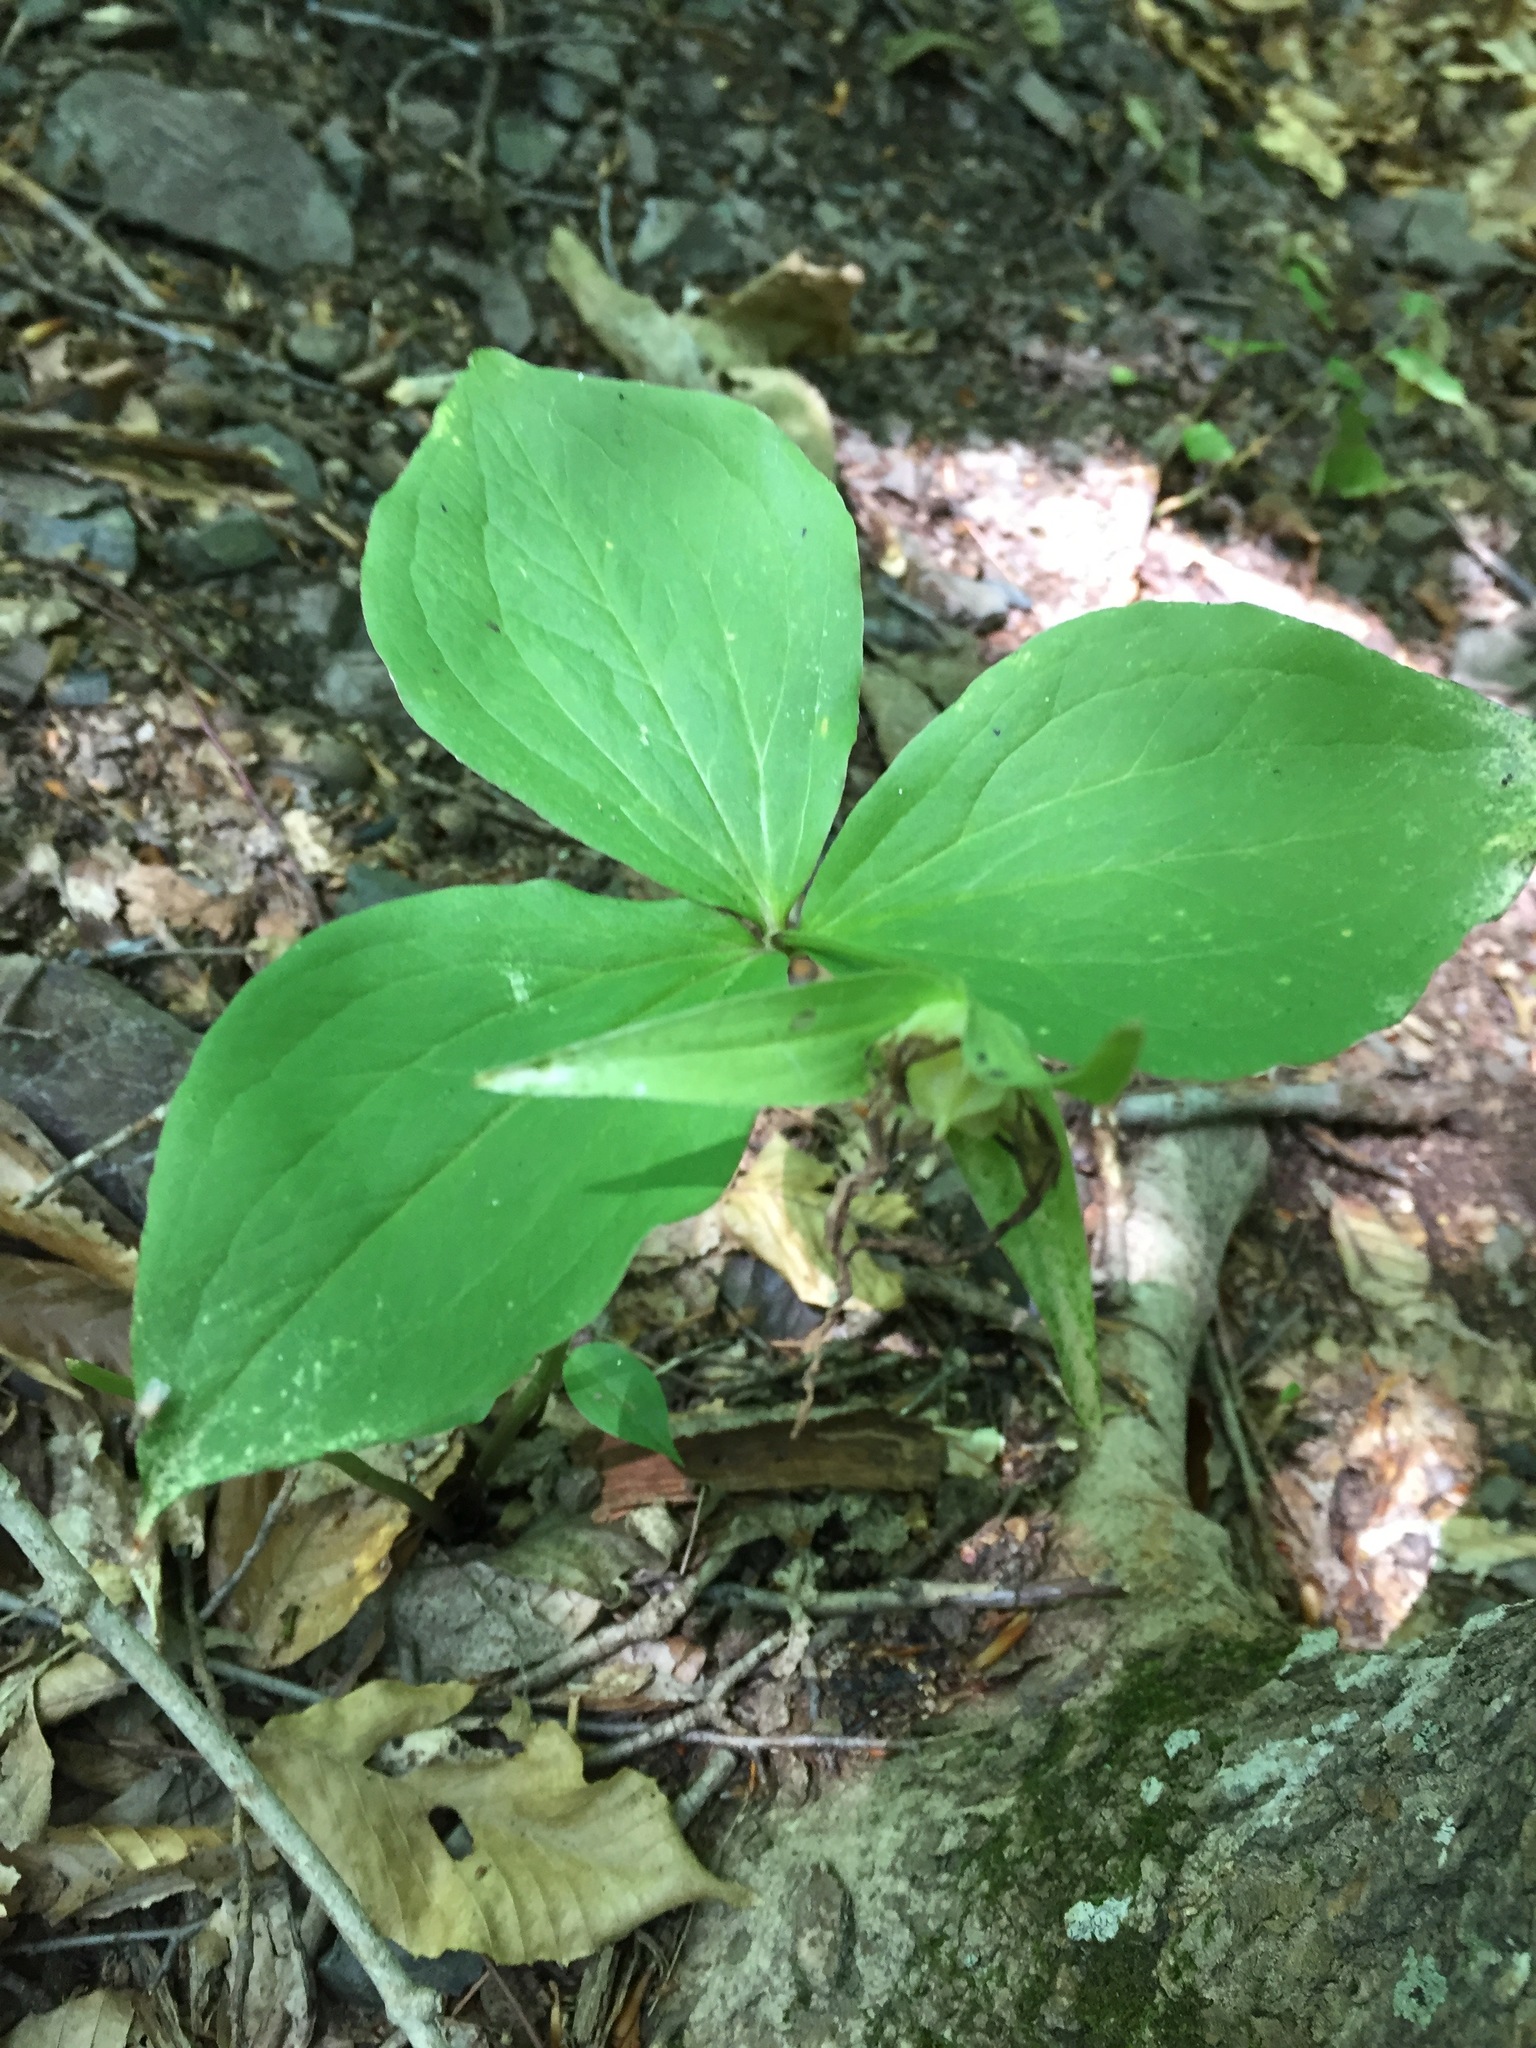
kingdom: Plantae
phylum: Tracheophyta
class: Liliopsida
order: Liliales
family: Melanthiaceae
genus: Trillium
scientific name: Trillium grandiflorum
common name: Great white trillium
